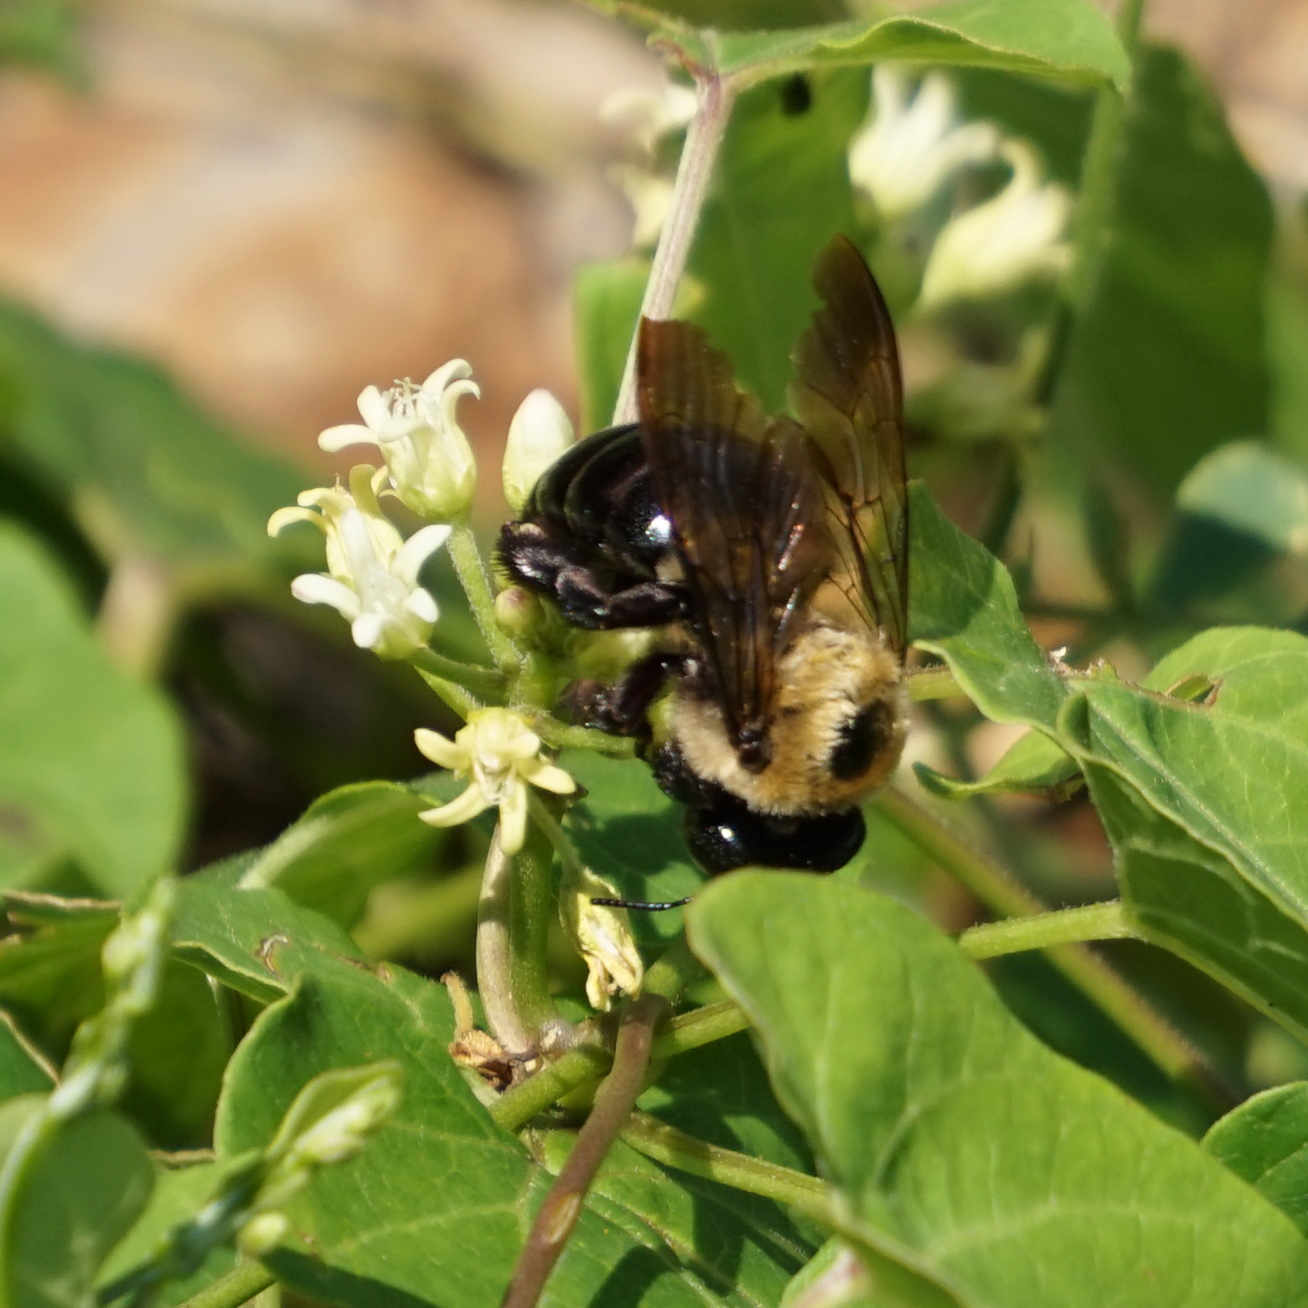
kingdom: Animalia
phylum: Arthropoda
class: Insecta
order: Hymenoptera
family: Apidae
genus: Xylocopa
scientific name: Xylocopa virginica
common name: Carpenter bee
